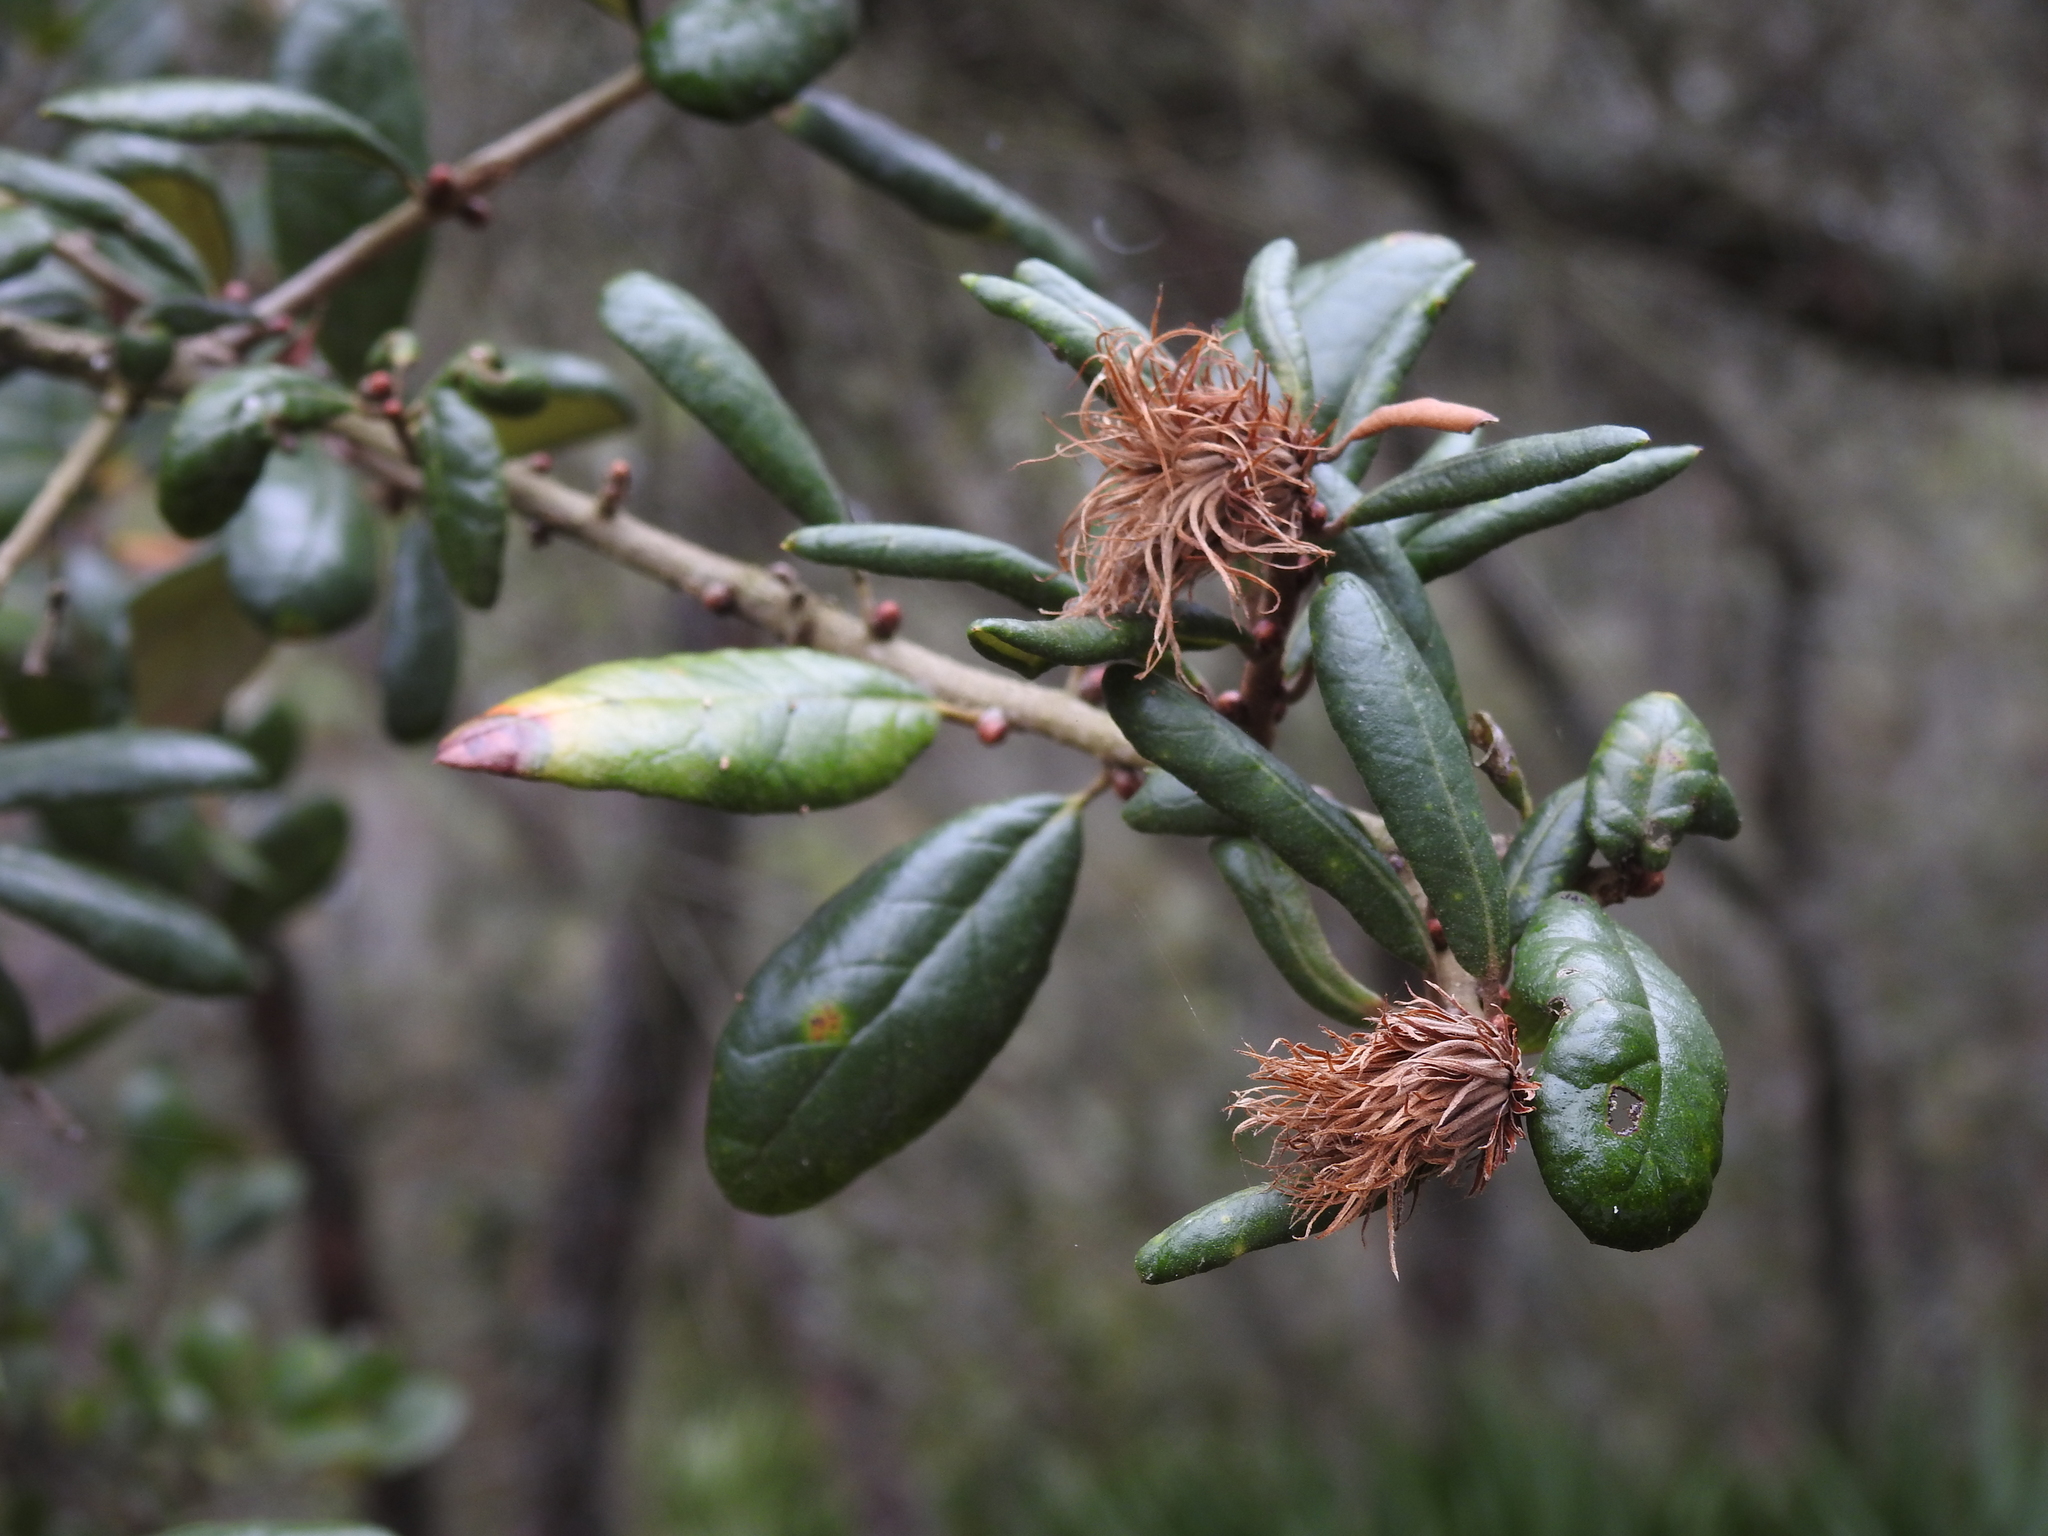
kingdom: Animalia
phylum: Arthropoda
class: Insecta
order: Hymenoptera
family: Cynipidae
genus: Andricus
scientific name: Andricus quercusfoliatus
